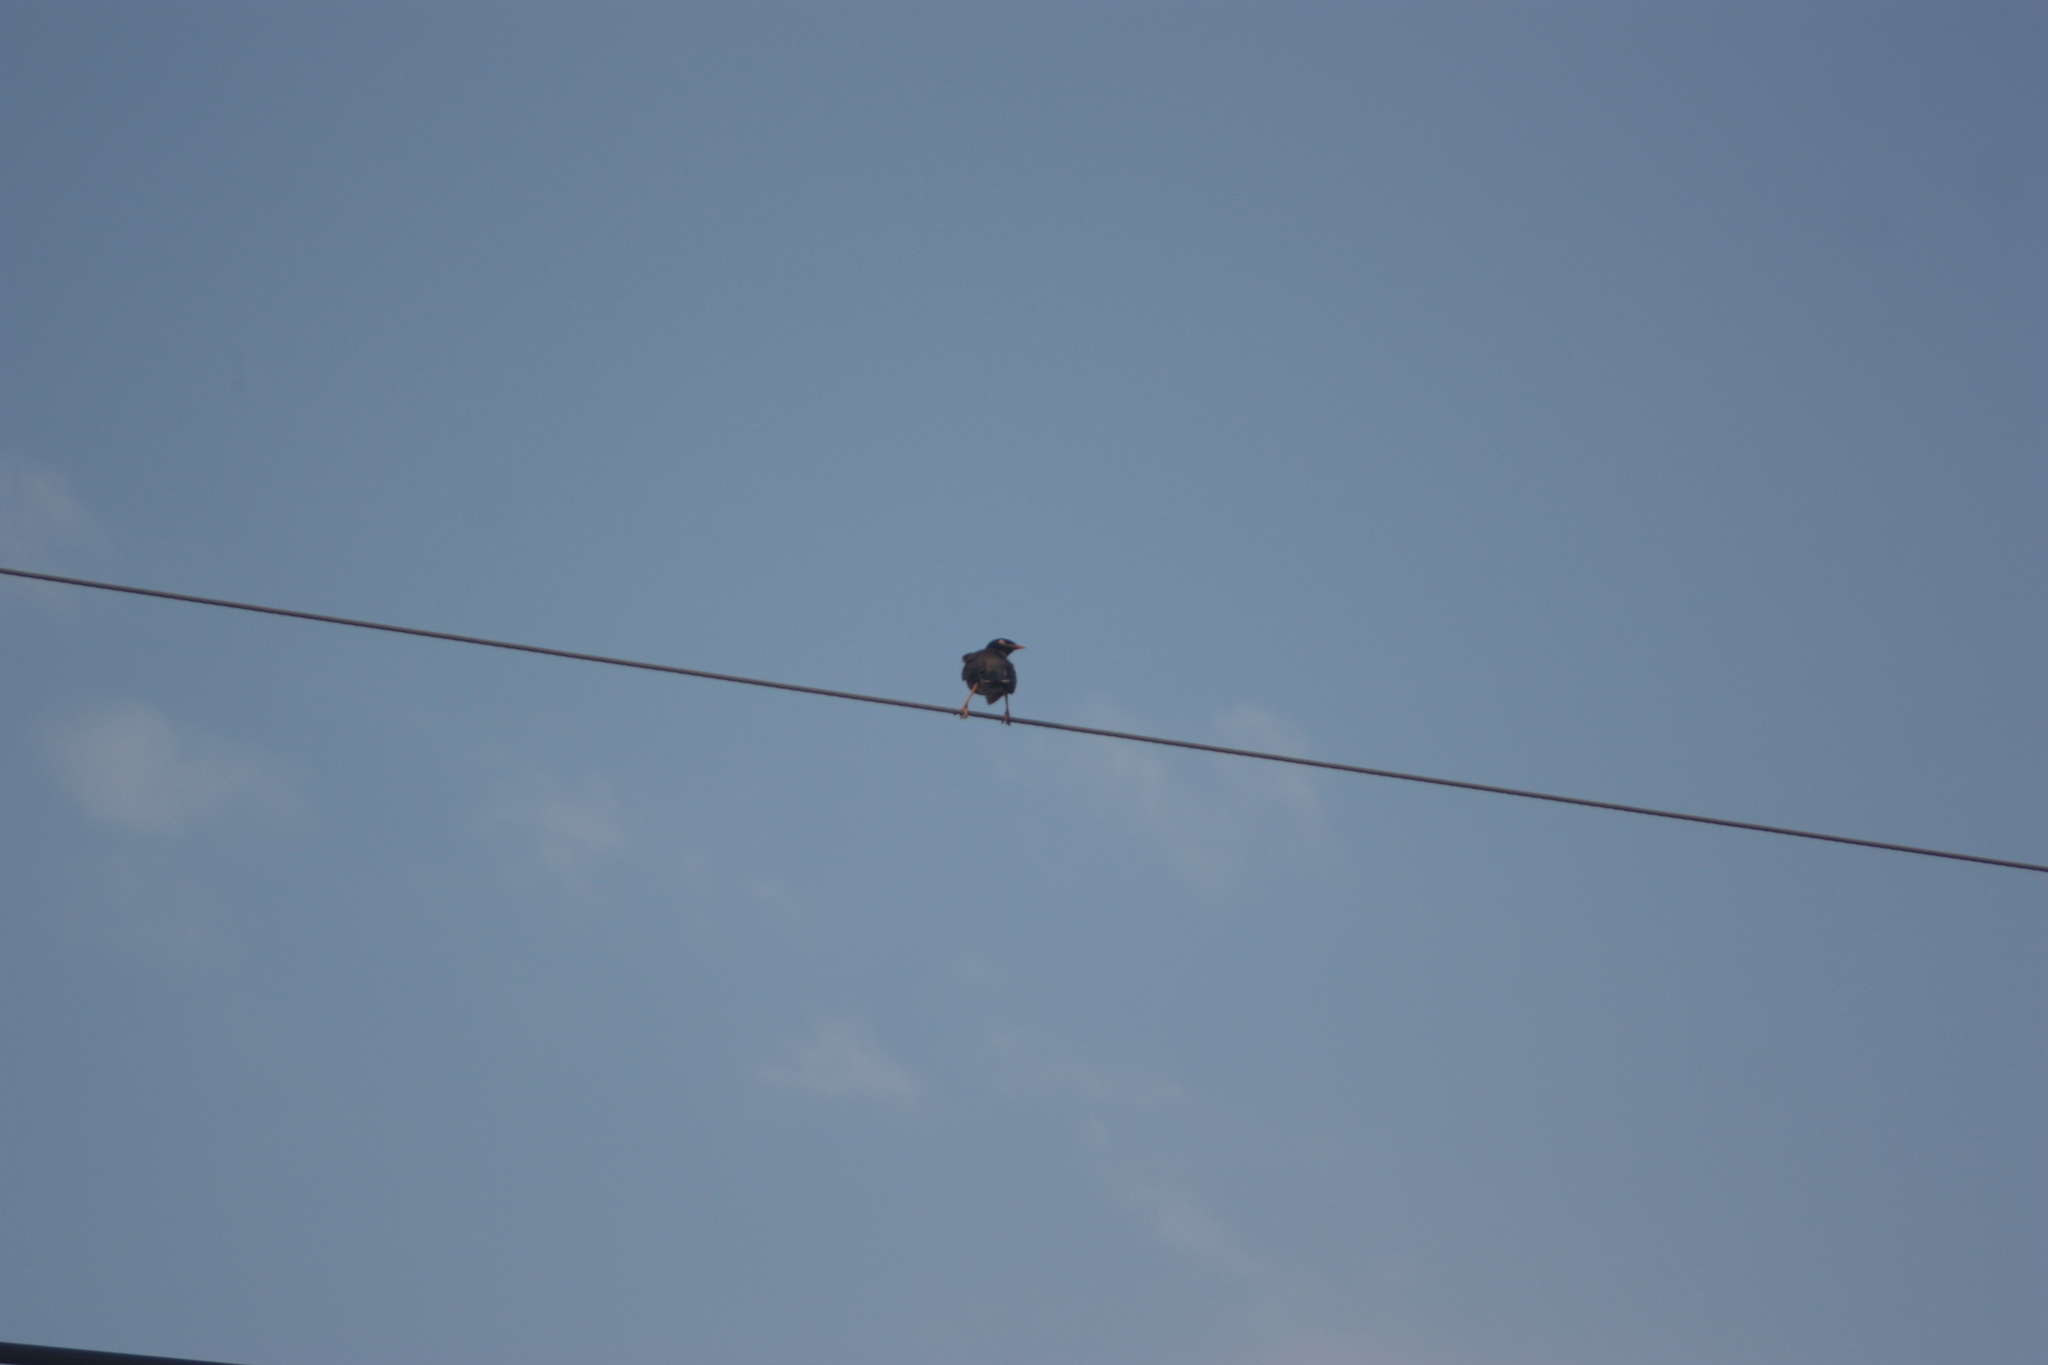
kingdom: Animalia
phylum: Chordata
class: Aves
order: Passeriformes
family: Sturnidae
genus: Acridotheres
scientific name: Acridotheres tristis
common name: Common myna
